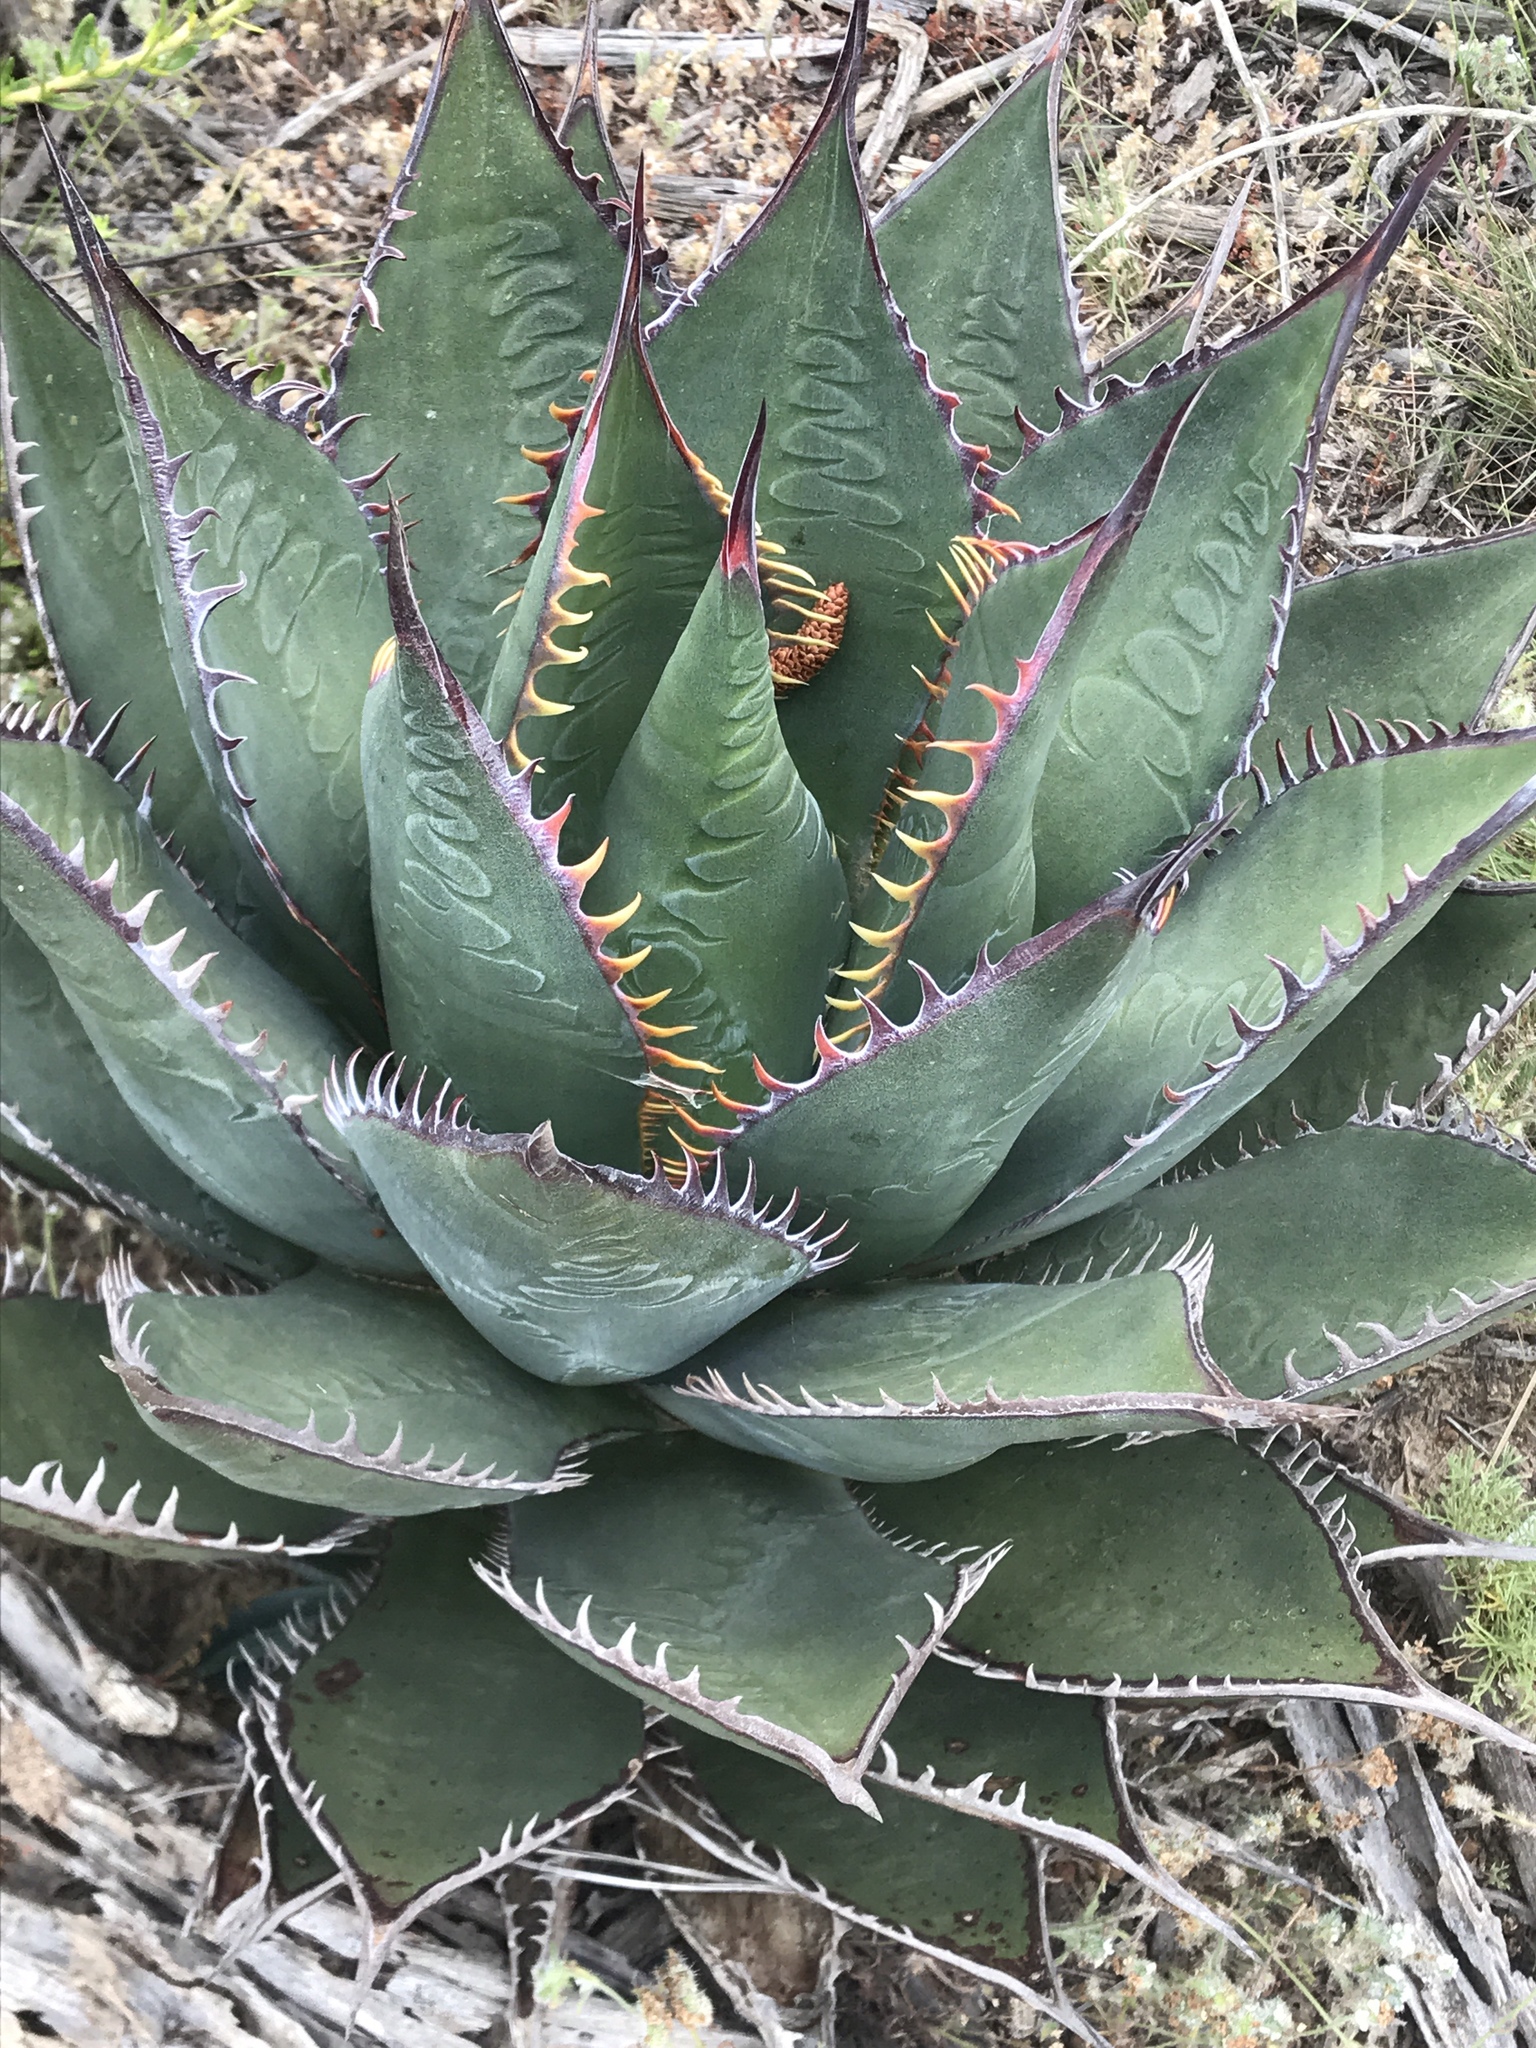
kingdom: Plantae
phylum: Tracheophyta
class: Liliopsida
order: Asparagales
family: Asparagaceae
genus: Agave
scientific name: Agave shawii
